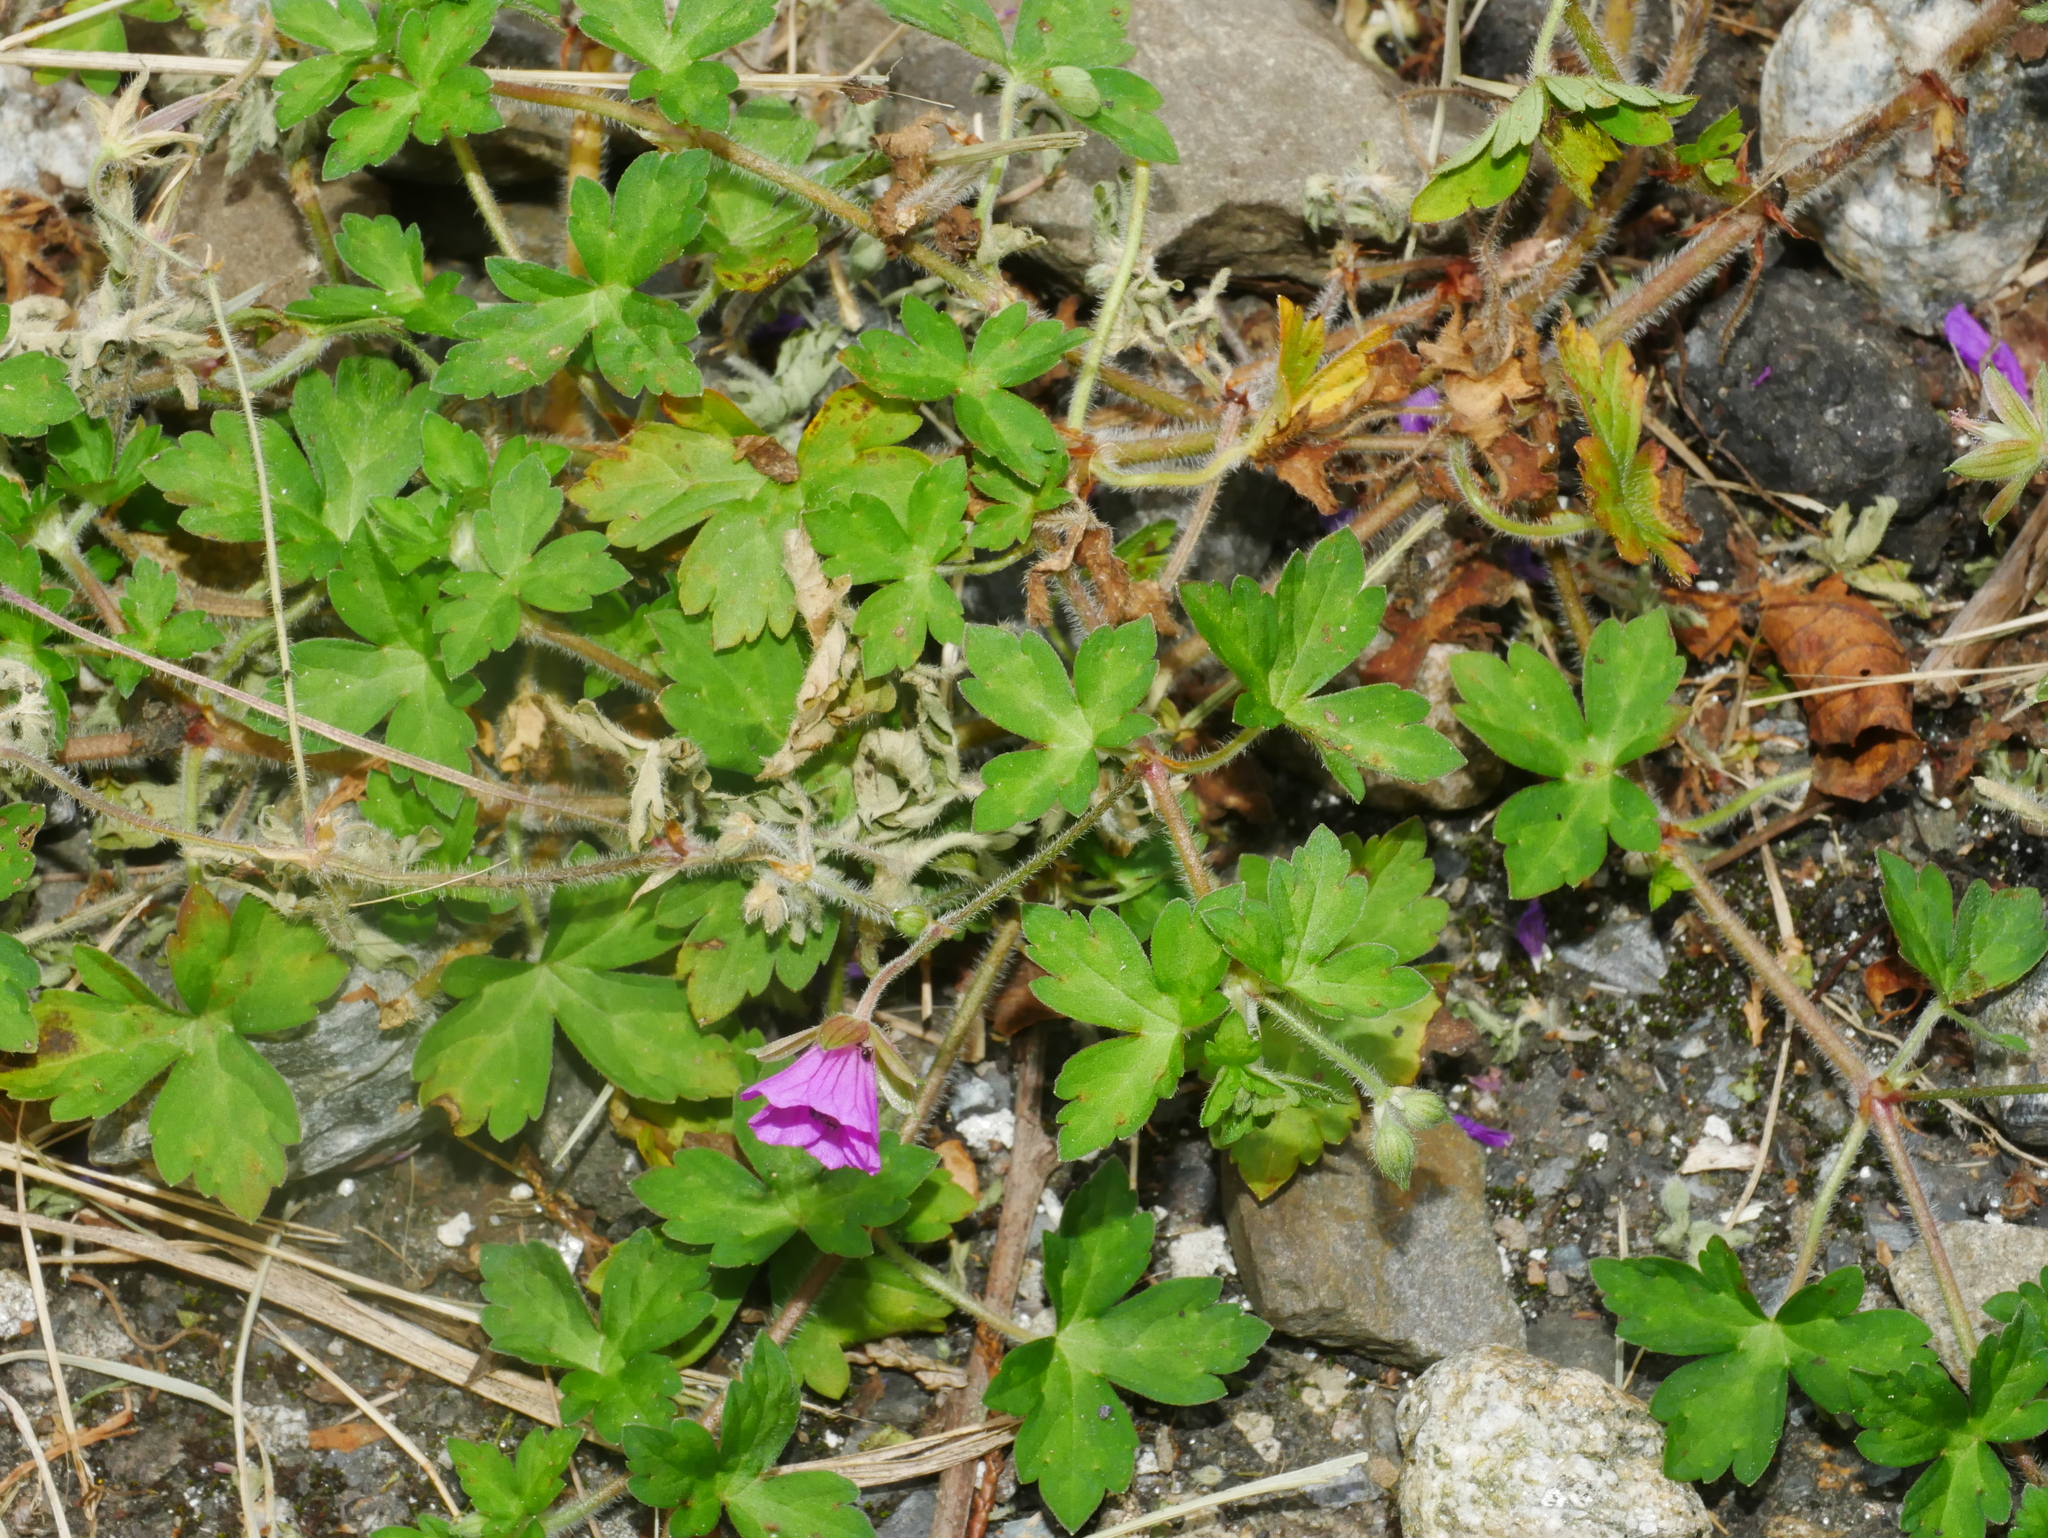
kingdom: Plantae
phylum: Tracheophyta
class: Magnoliopsida
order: Geraniales
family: Geraniaceae
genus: Geranium
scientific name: Geranium thunbergii
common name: Dewdrop crane's-bill
